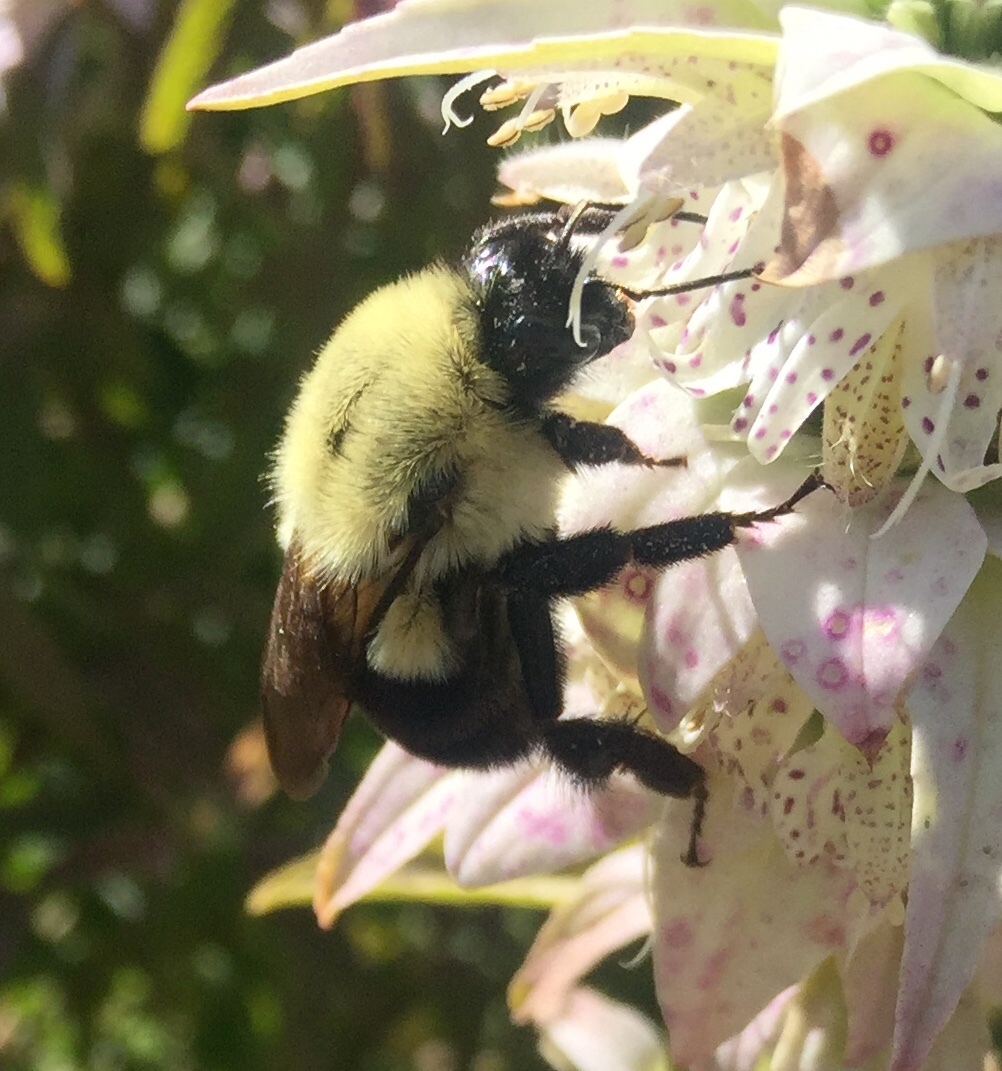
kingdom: Plantae
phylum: Tracheophyta
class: Magnoliopsida
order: Lamiales
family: Lamiaceae
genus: Monarda
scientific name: Monarda punctata
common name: Dotted monarda
